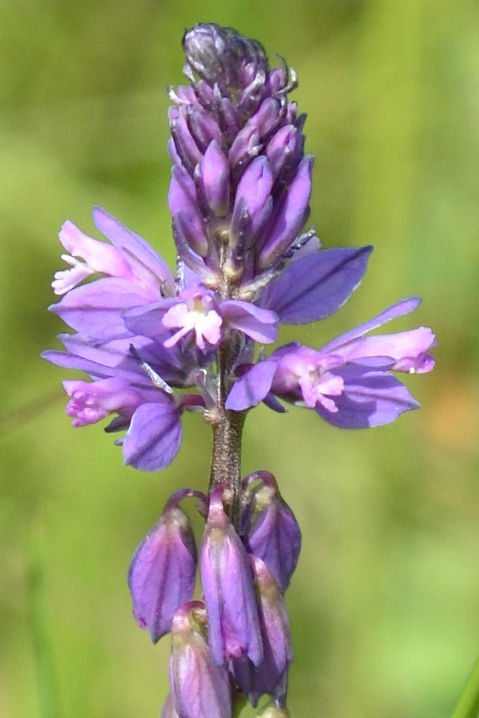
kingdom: Plantae
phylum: Tracheophyta
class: Magnoliopsida
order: Fabales
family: Polygalaceae
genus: Polygala
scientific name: Polygala comosa
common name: Tufted milkwort
